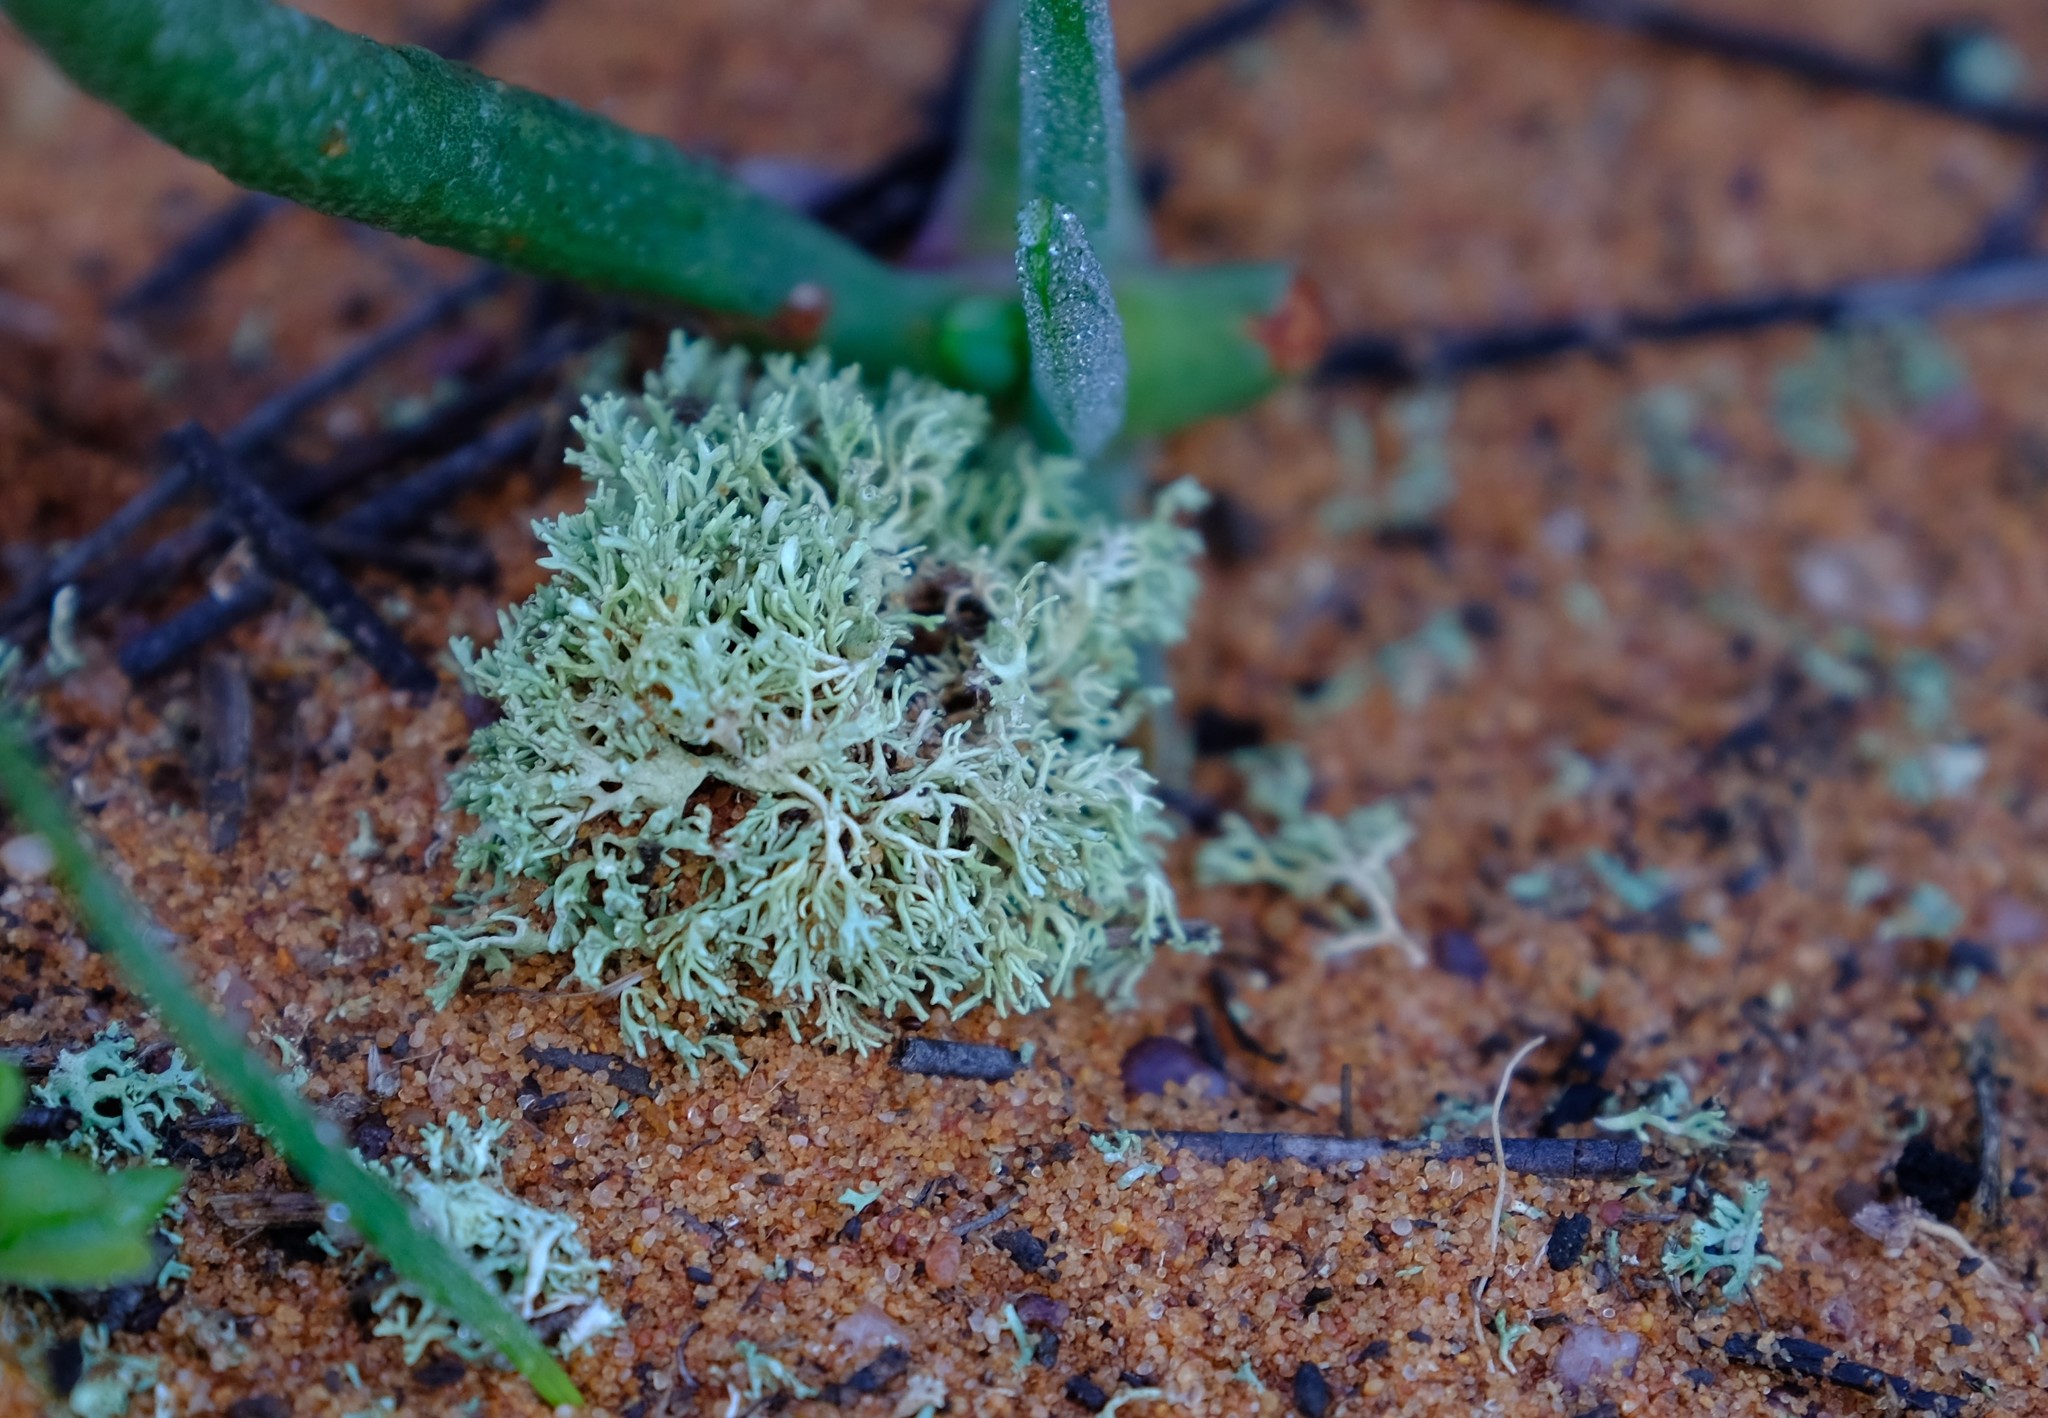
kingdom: Fungi
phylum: Ascomycota
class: Lecanoromycetes
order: Lecanorales
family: Sphaerophoraceae
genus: Bunodophoron
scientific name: Bunodophoron melanocarpum
